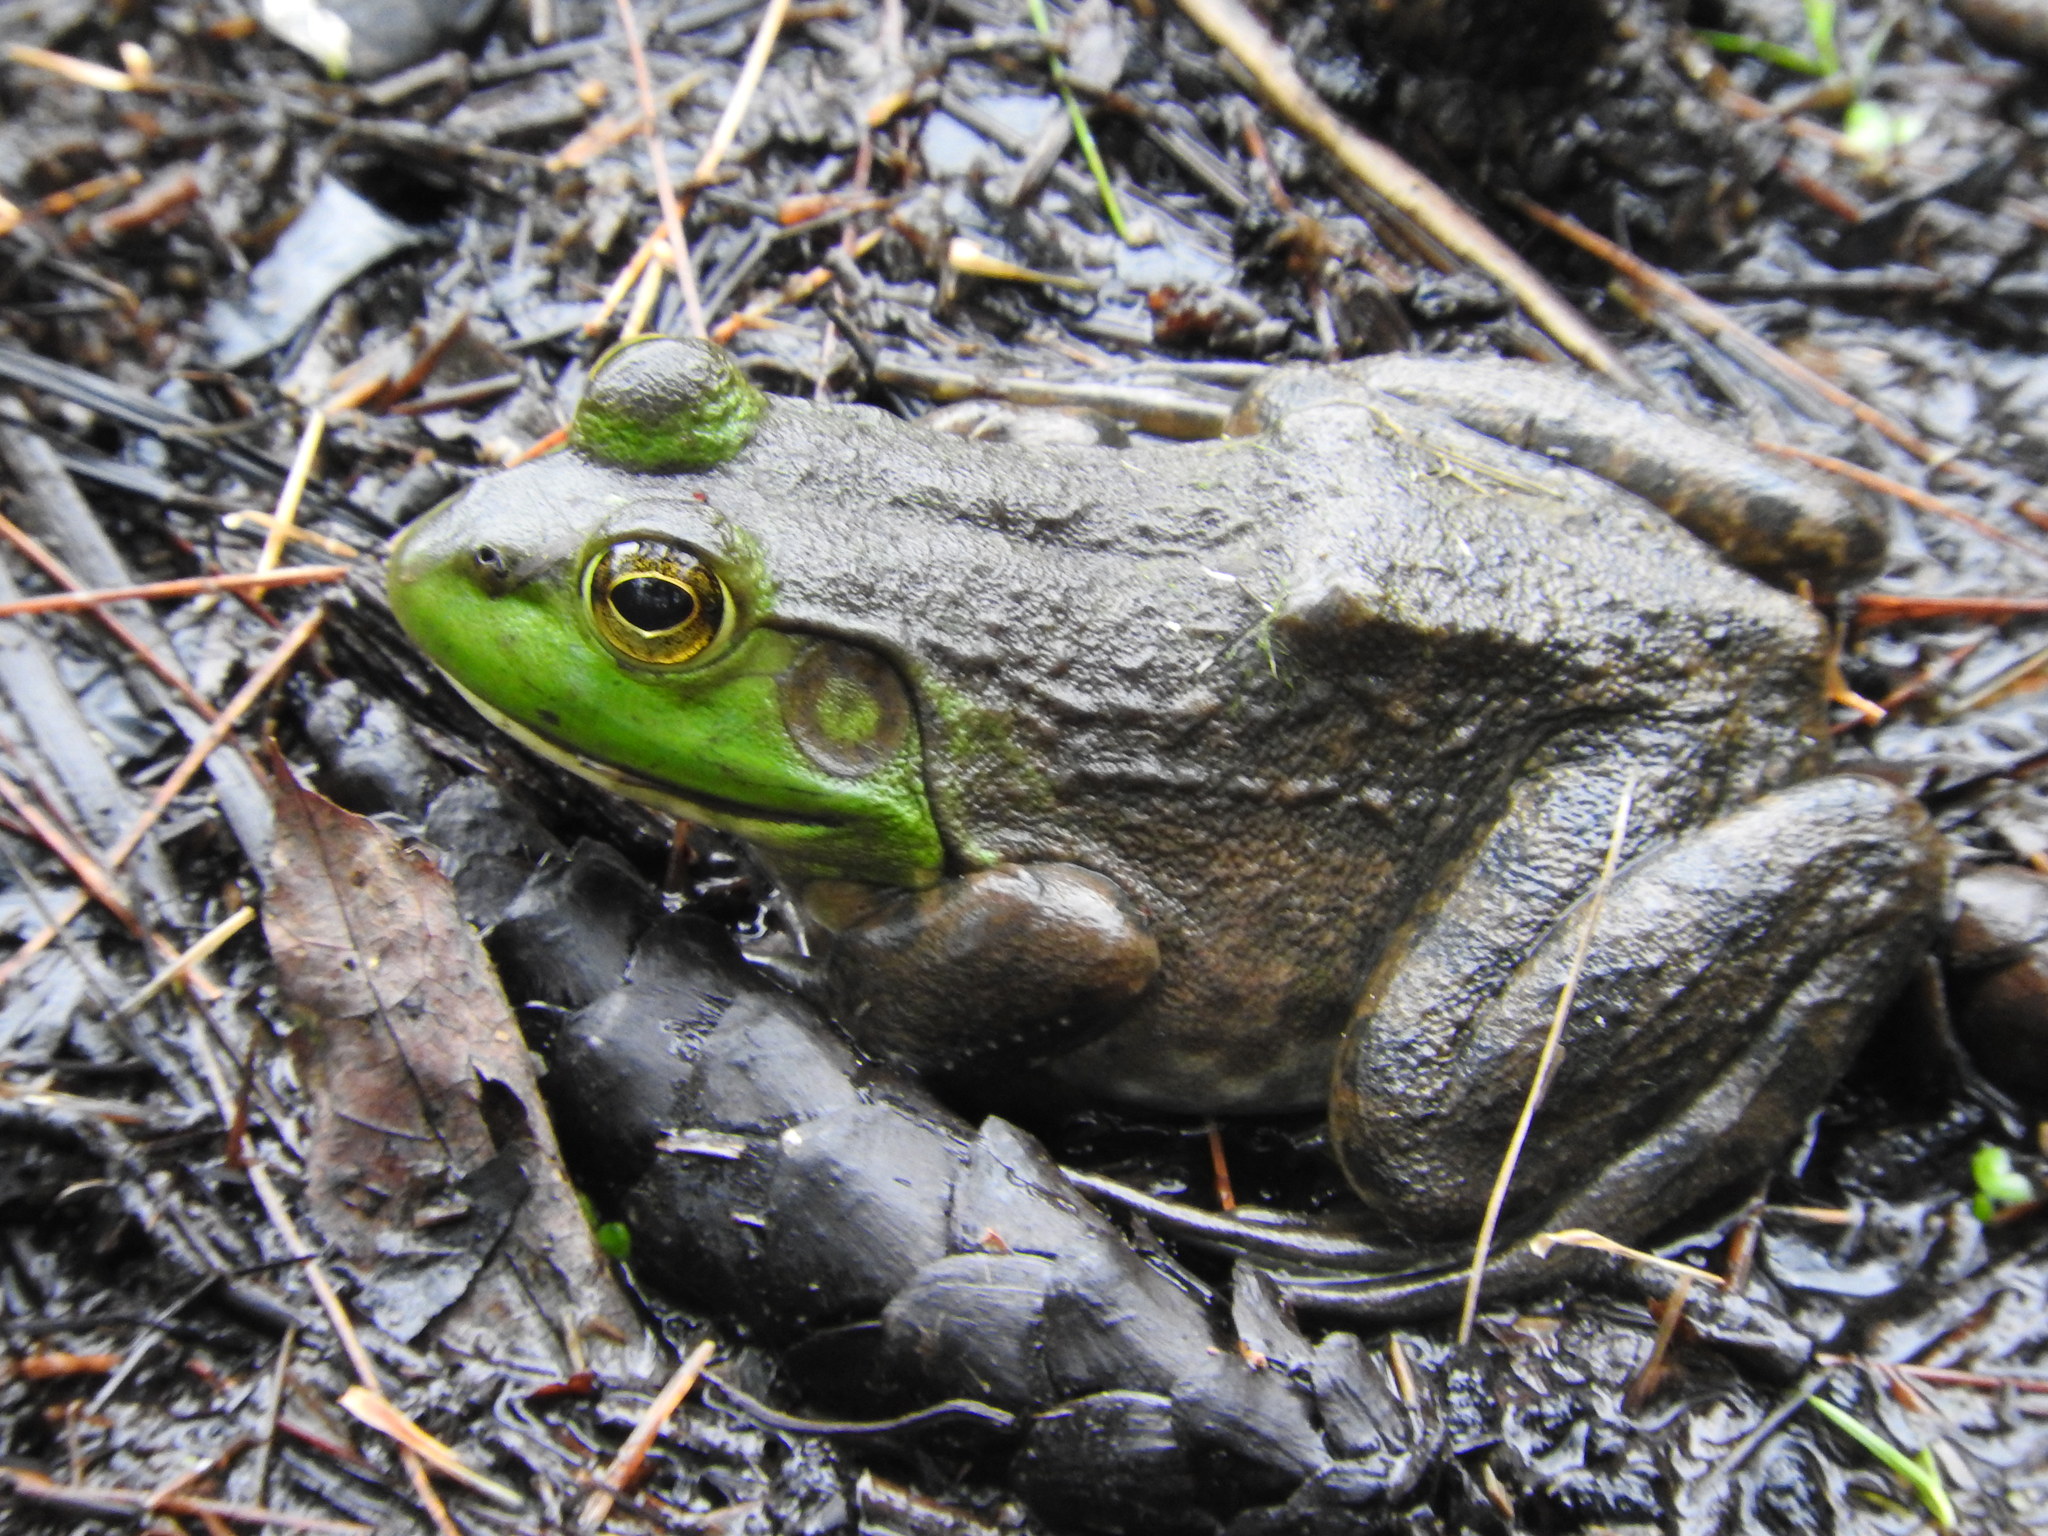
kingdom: Animalia
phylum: Chordata
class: Amphibia
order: Anura
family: Ranidae
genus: Lithobates
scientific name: Lithobates catesbeianus
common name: American bullfrog
